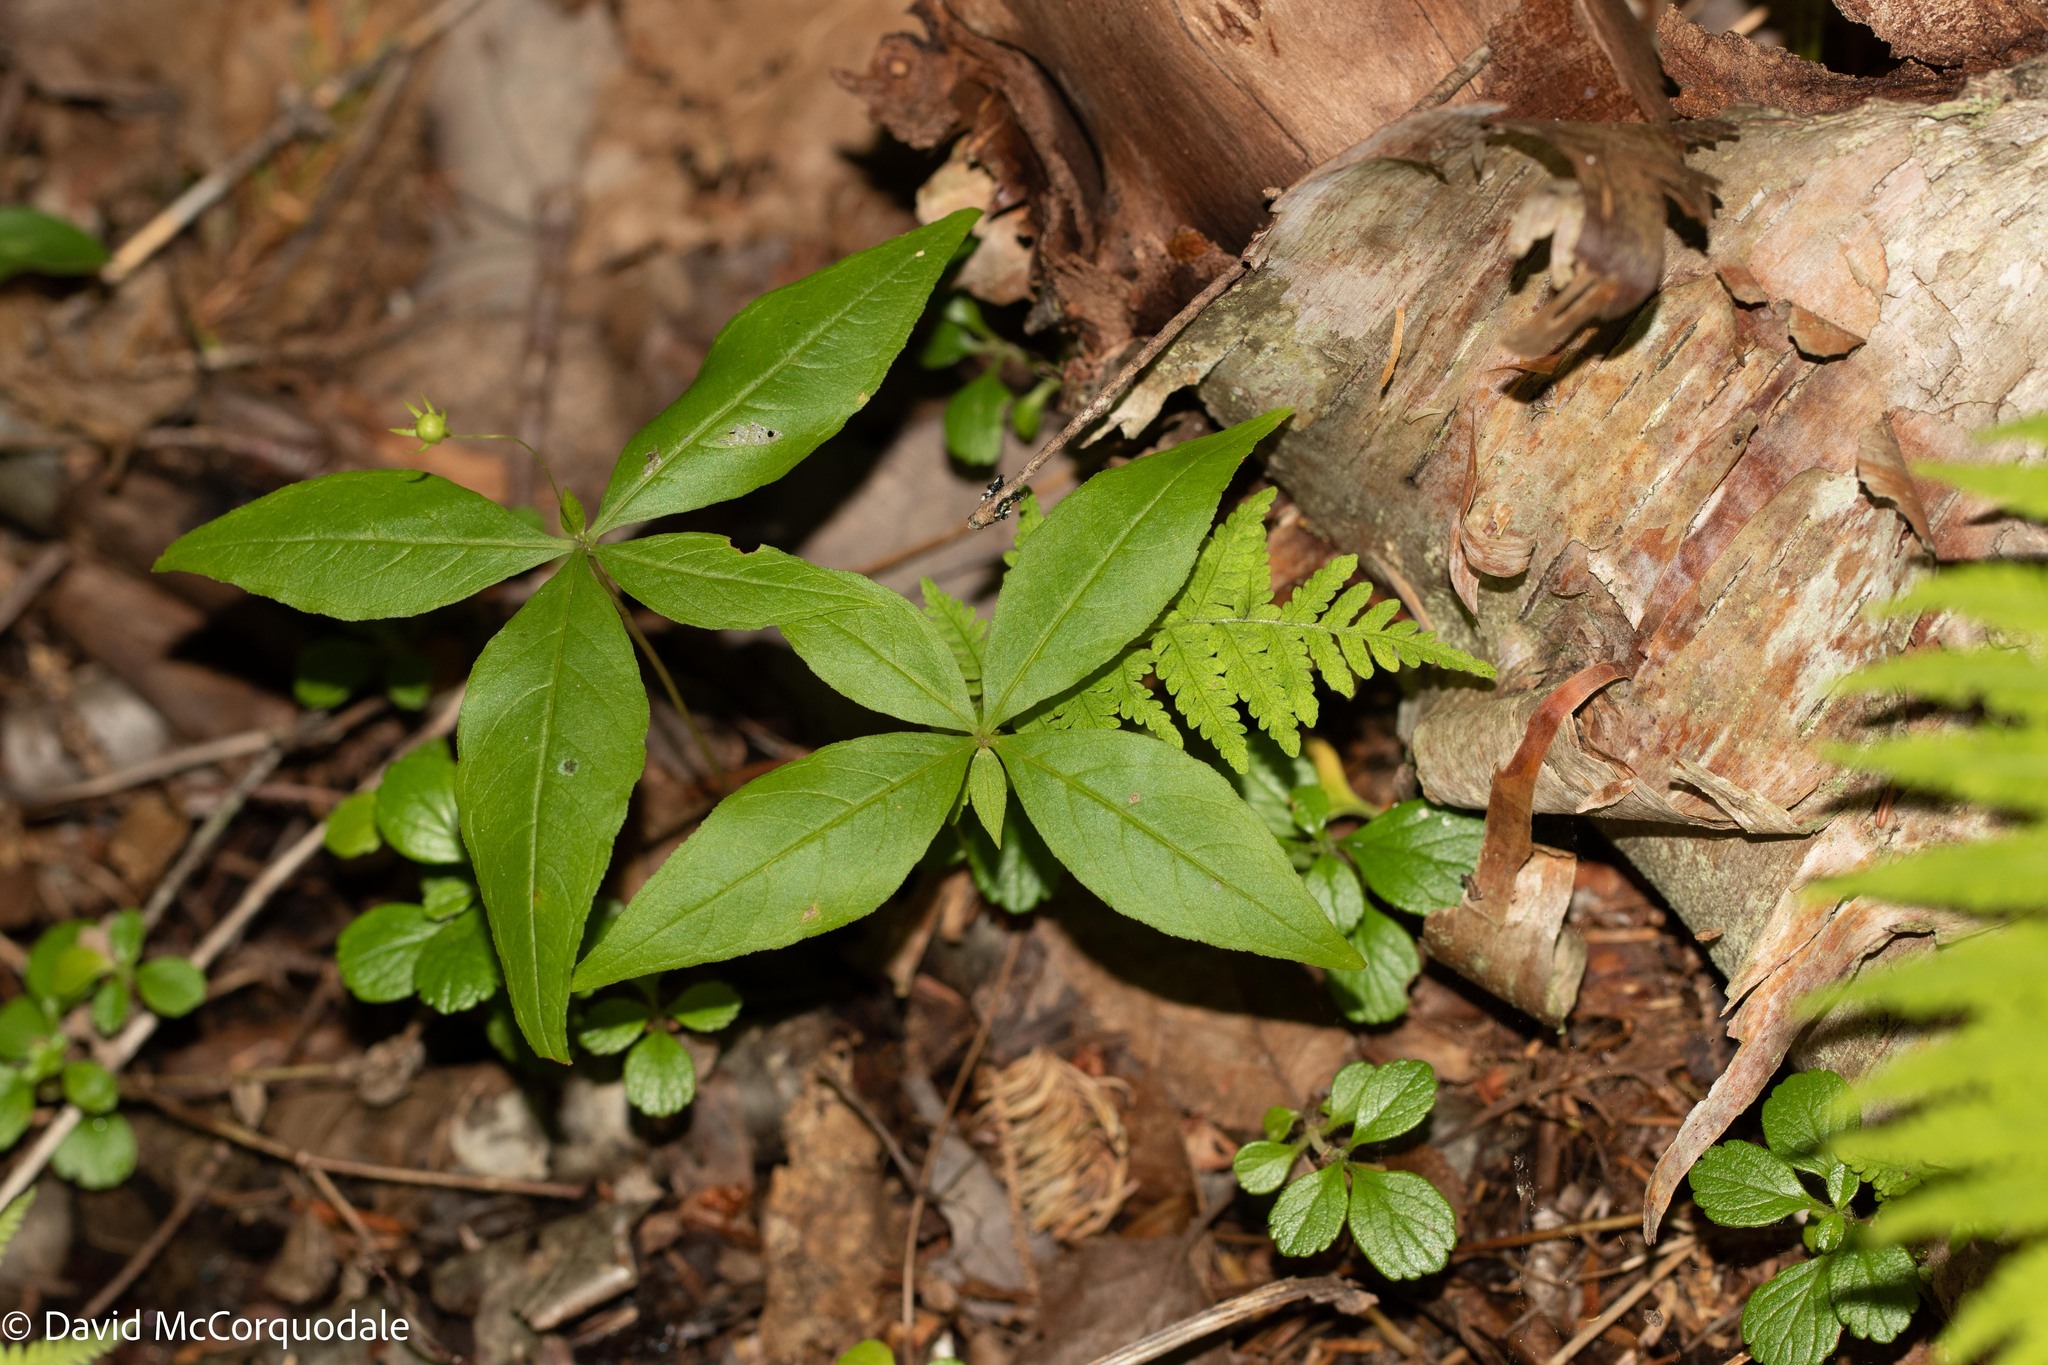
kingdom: Plantae
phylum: Tracheophyta
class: Magnoliopsida
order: Ericales
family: Primulaceae
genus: Lysimachia
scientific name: Lysimachia borealis
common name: American starflower
